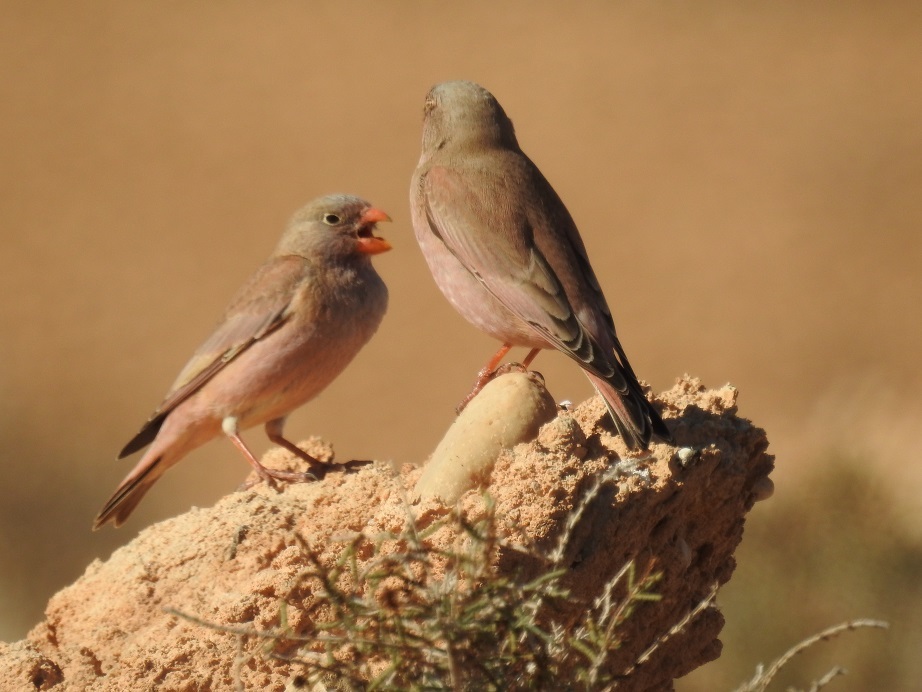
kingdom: Animalia
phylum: Chordata
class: Aves
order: Passeriformes
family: Fringillidae
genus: Bucanetes
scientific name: Bucanetes githagineus
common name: Trumpeter finch
